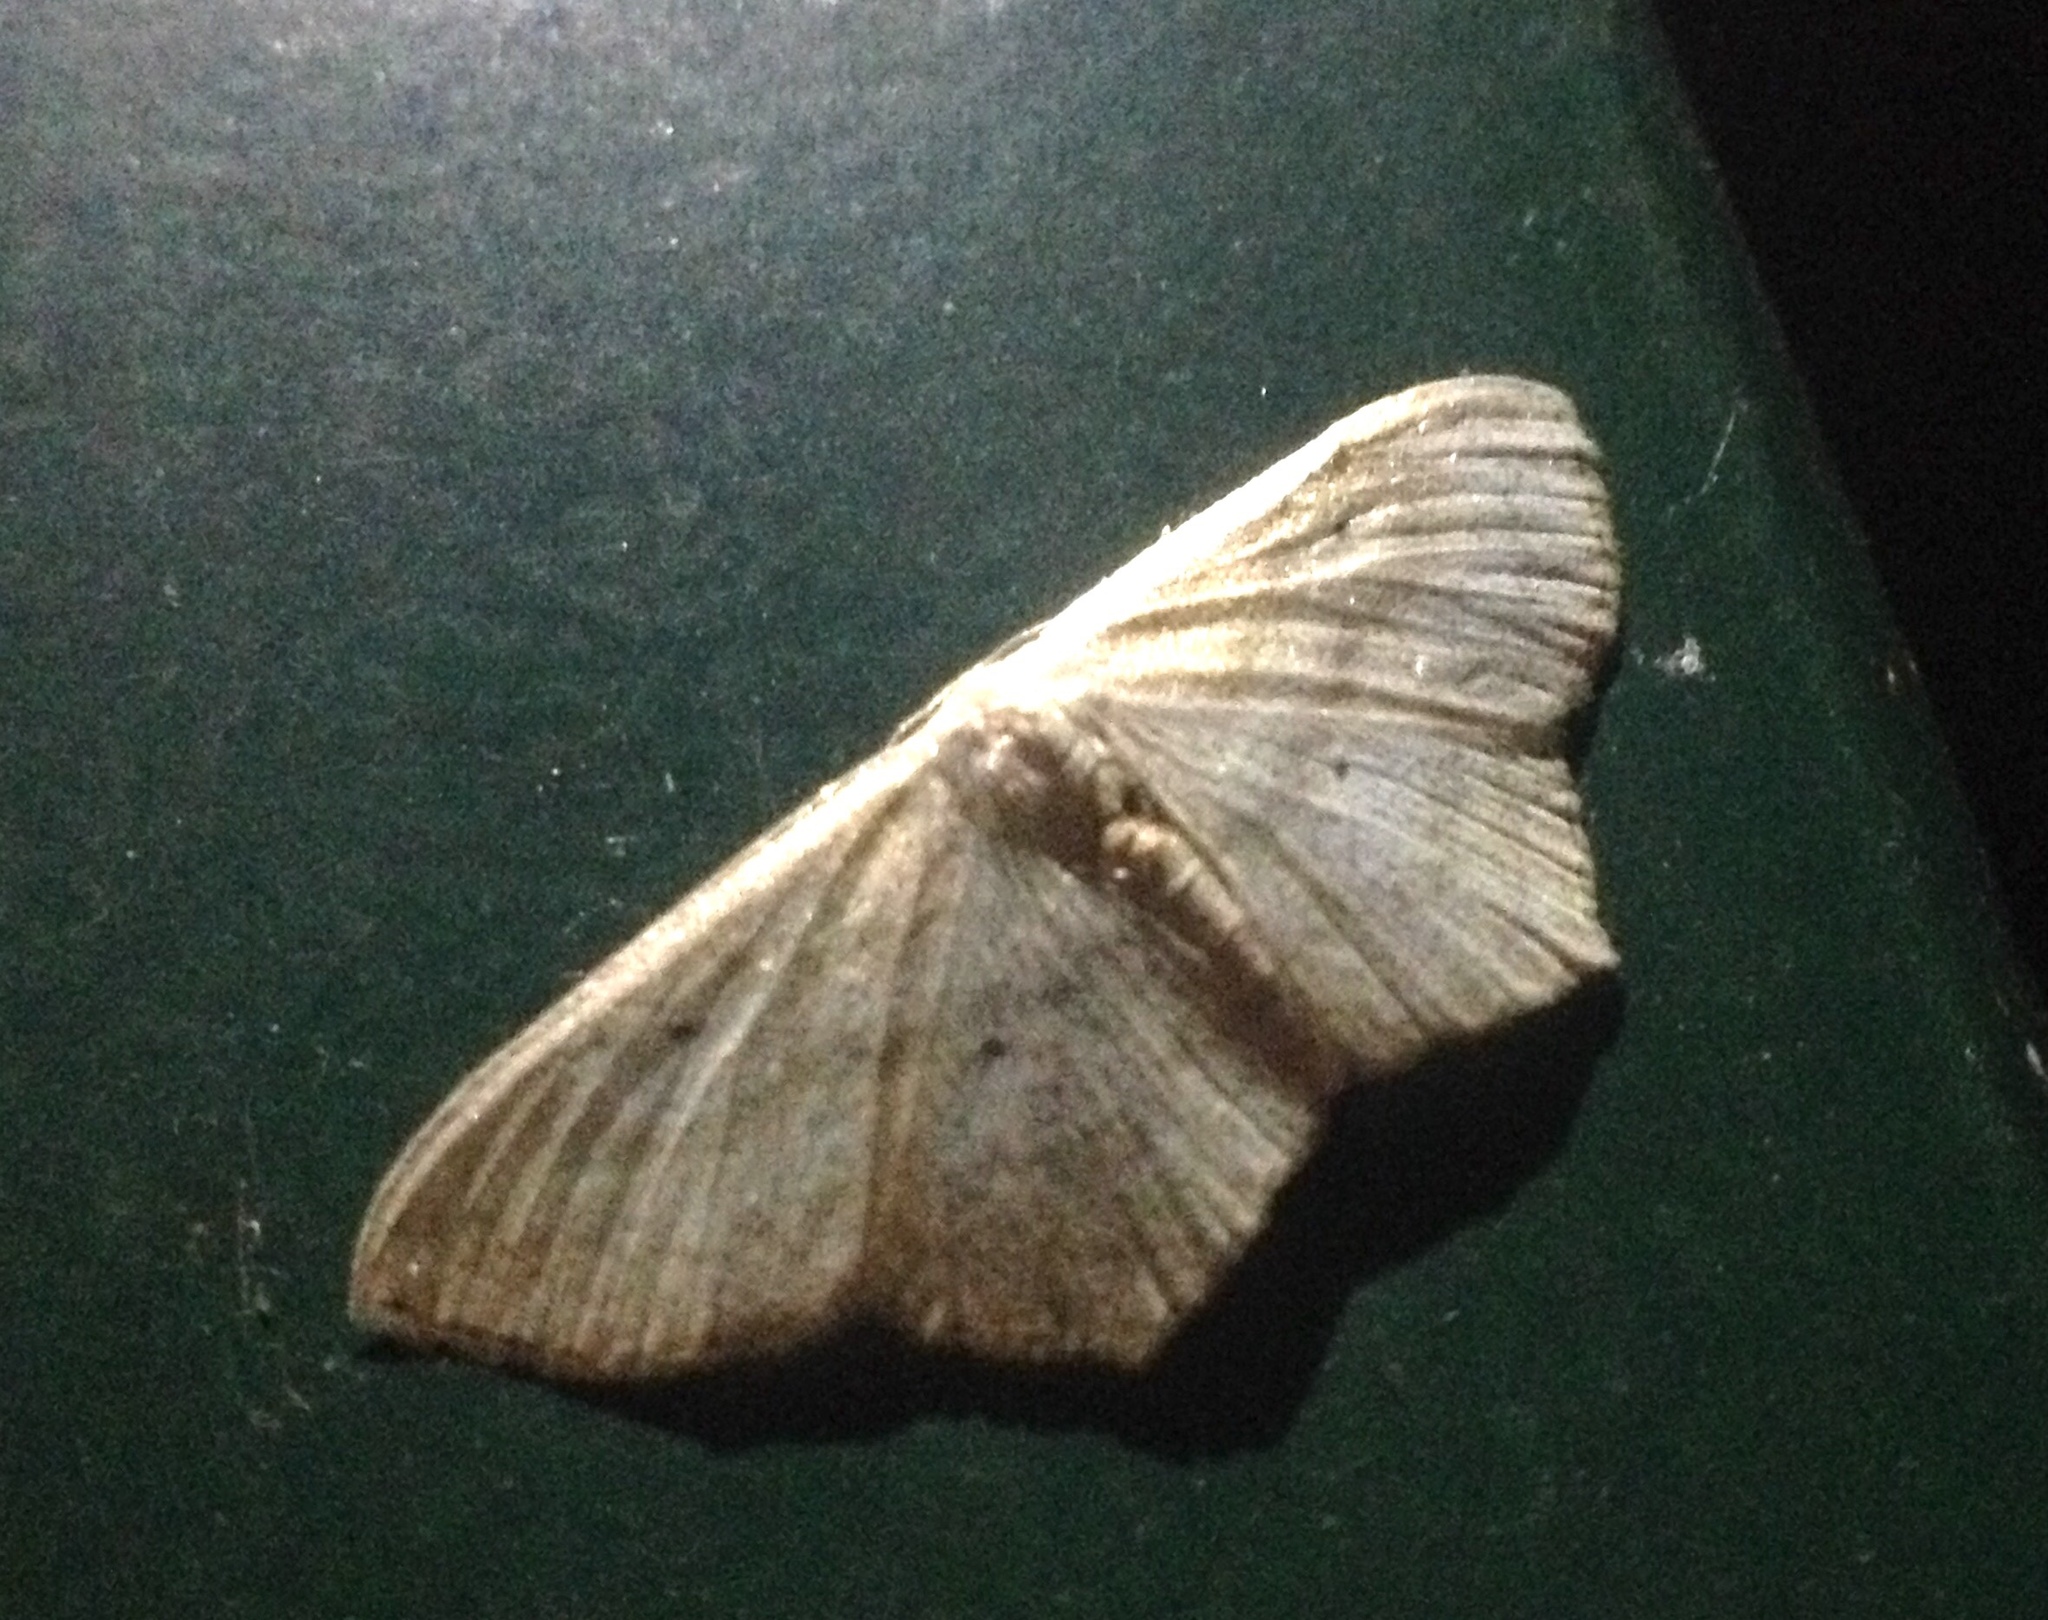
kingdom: Animalia
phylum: Arthropoda
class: Insecta
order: Lepidoptera
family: Geometridae
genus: Scopula
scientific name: Scopula nigropunctata
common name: Sub-angled wave
